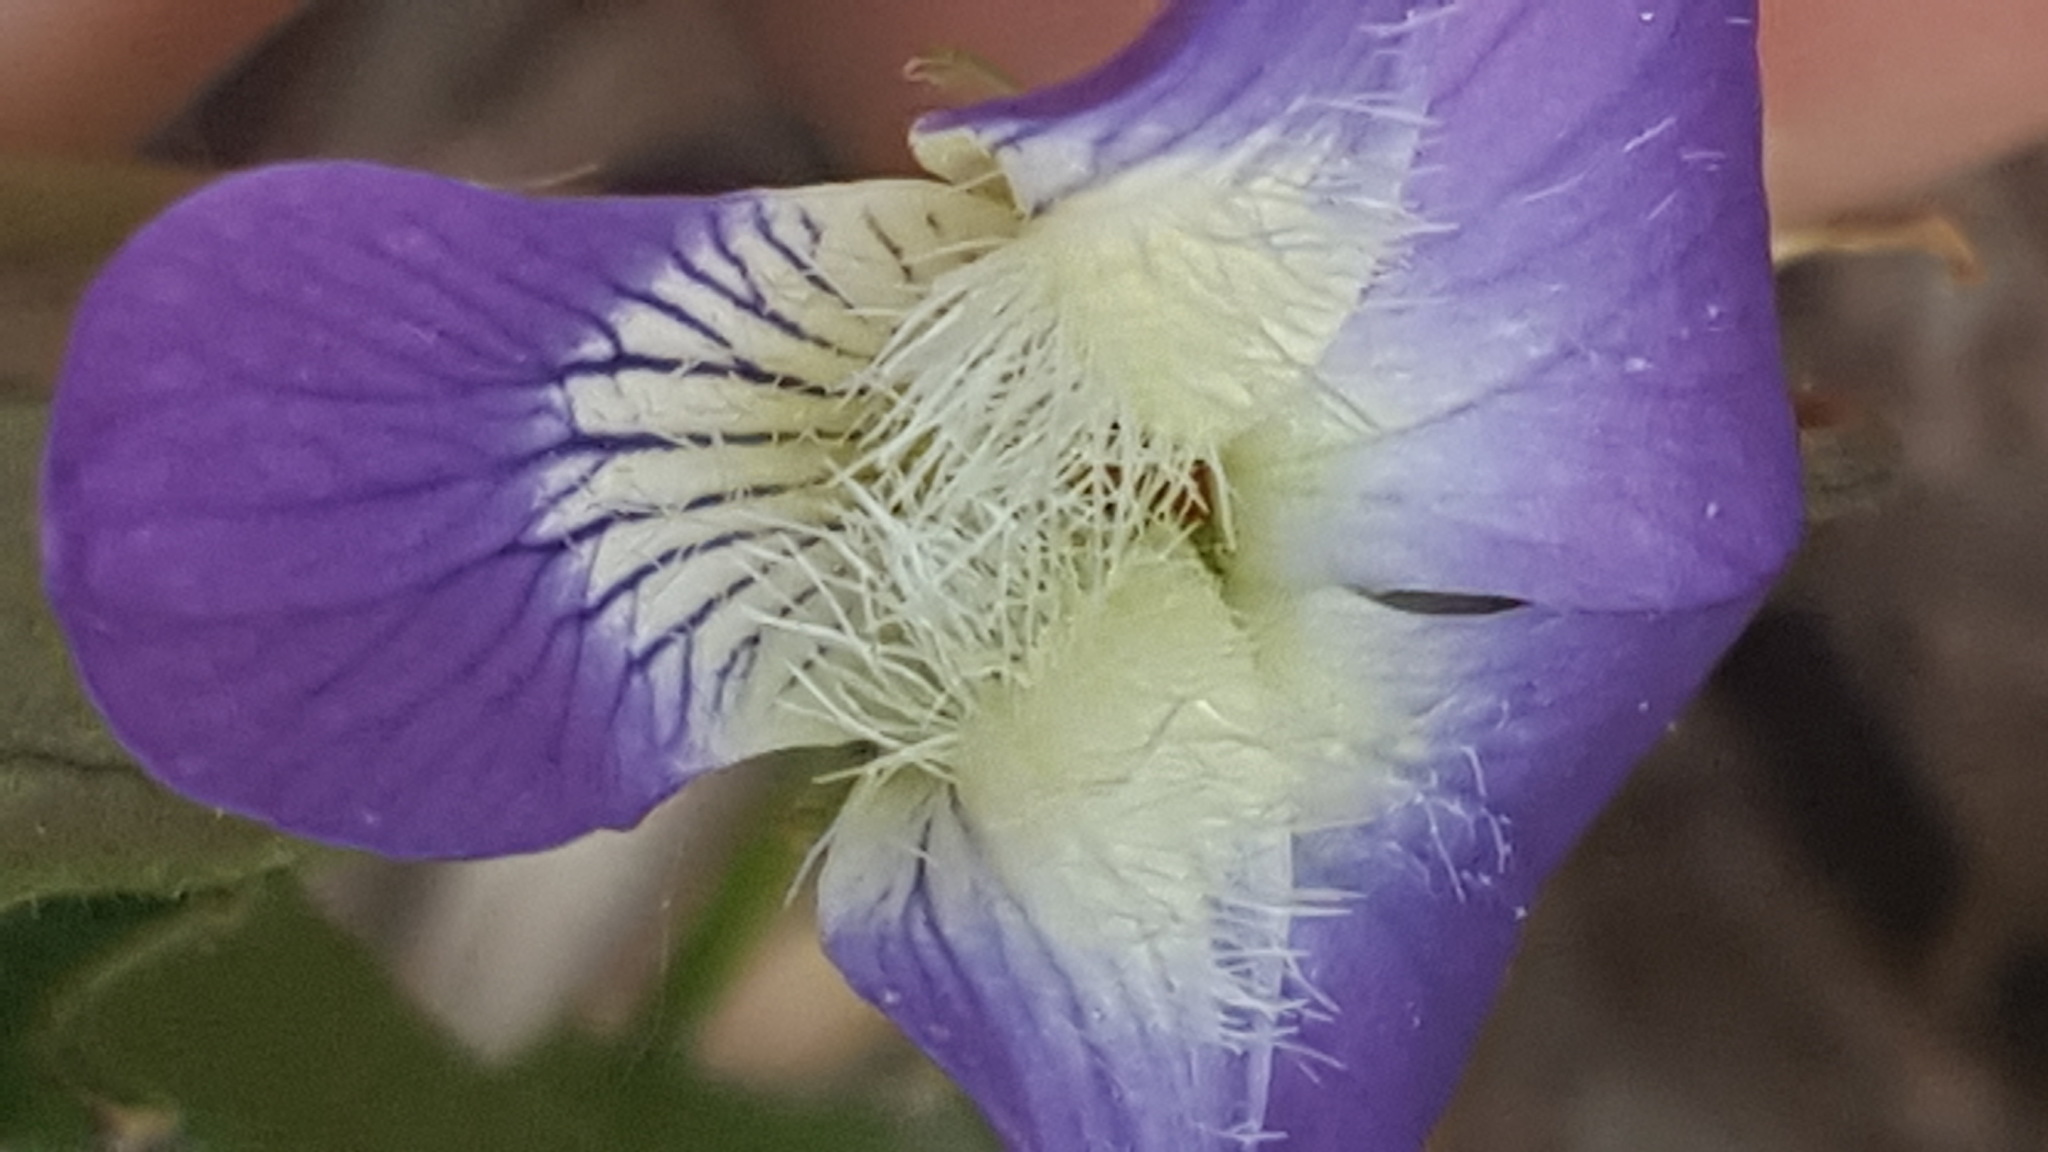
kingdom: Plantae
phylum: Tracheophyta
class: Magnoliopsida
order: Malpighiales
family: Violaceae
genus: Viola
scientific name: Viola sagittata
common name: Arrowhead violet
